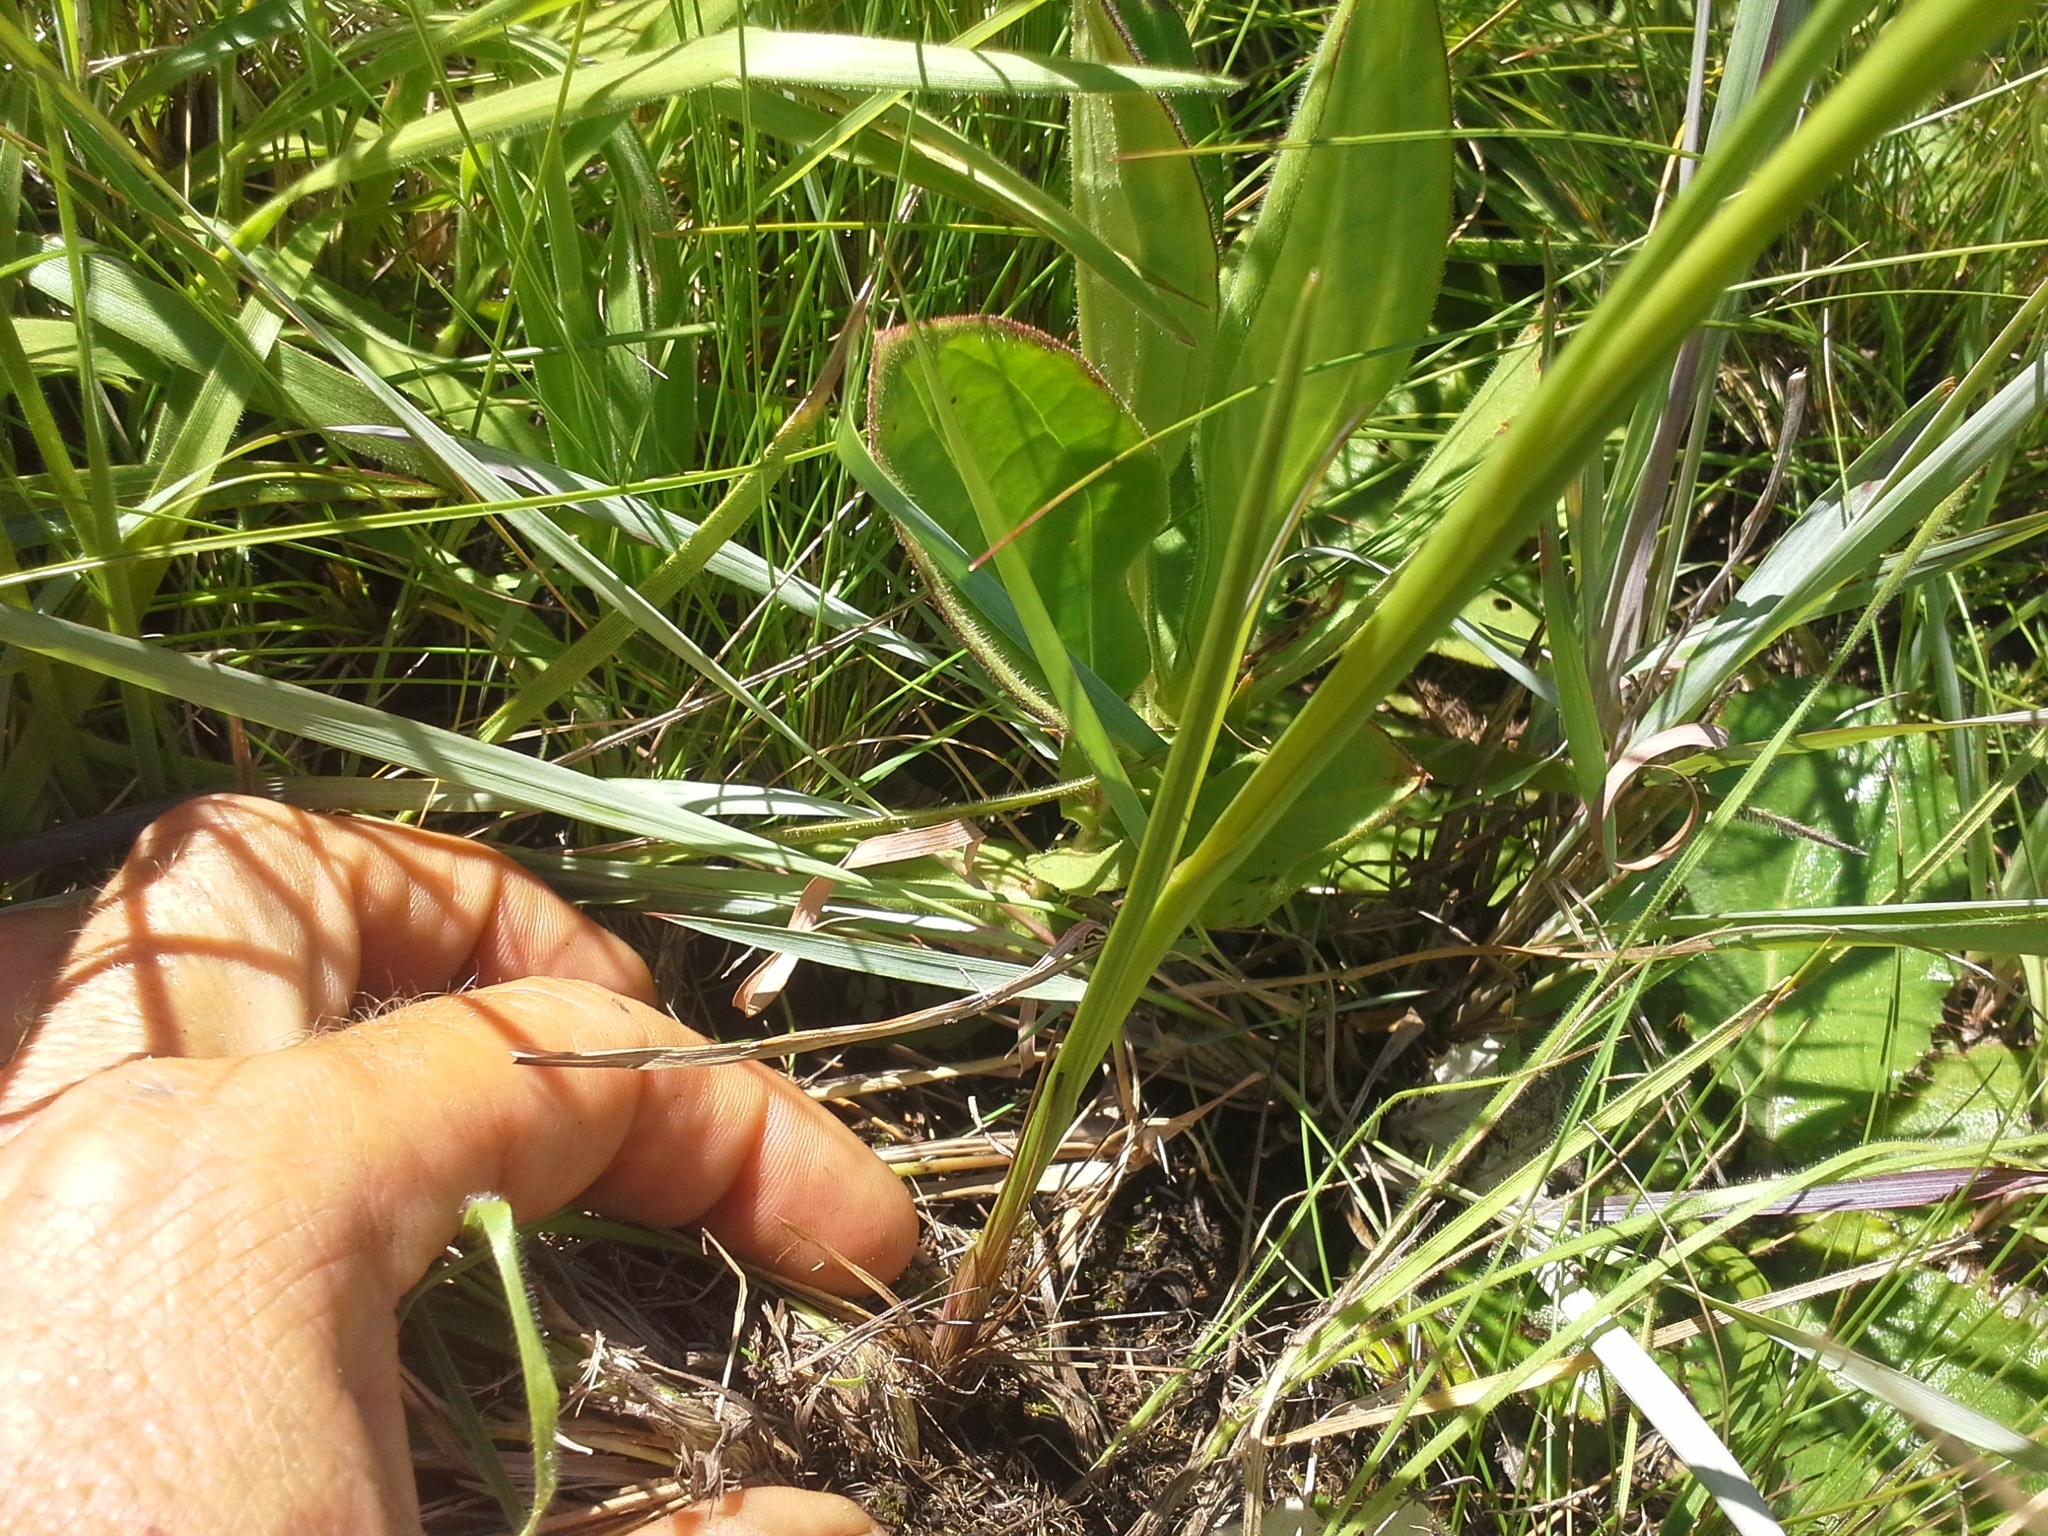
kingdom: Plantae
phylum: Tracheophyta
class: Liliopsida
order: Asparagales
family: Orchidaceae
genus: Disa
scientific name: Disa staerkeriana
